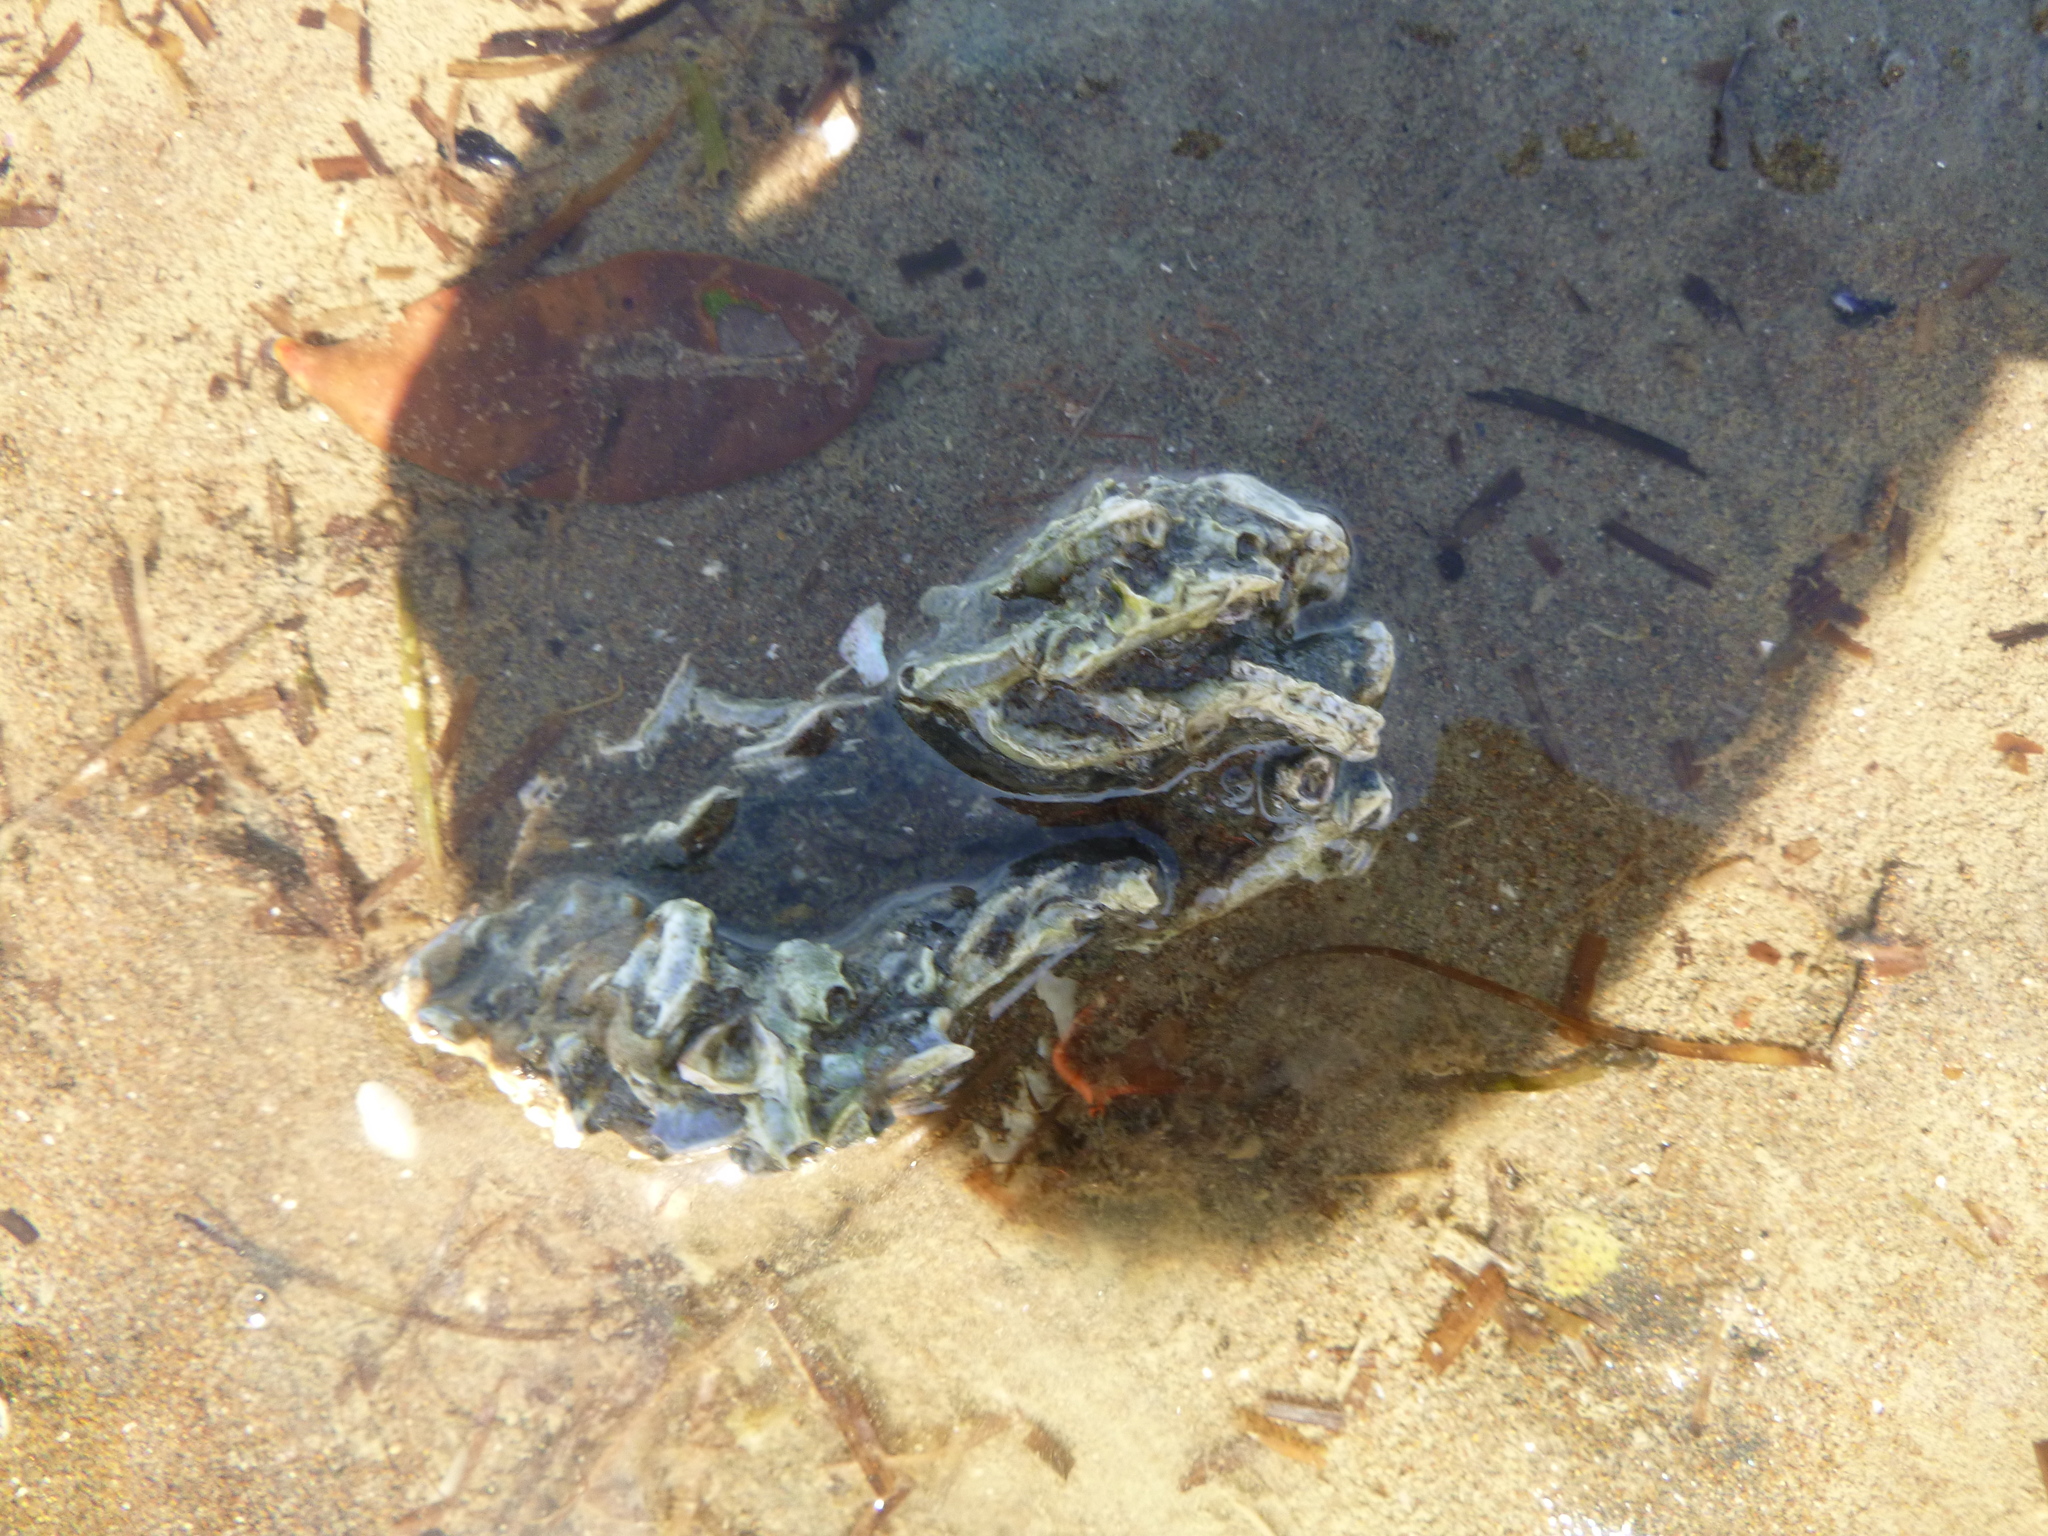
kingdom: Animalia
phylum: Annelida
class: Polychaeta
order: Sabellida
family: Serpulidae
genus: Spirobranchus
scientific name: Spirobranchus cariniferus
